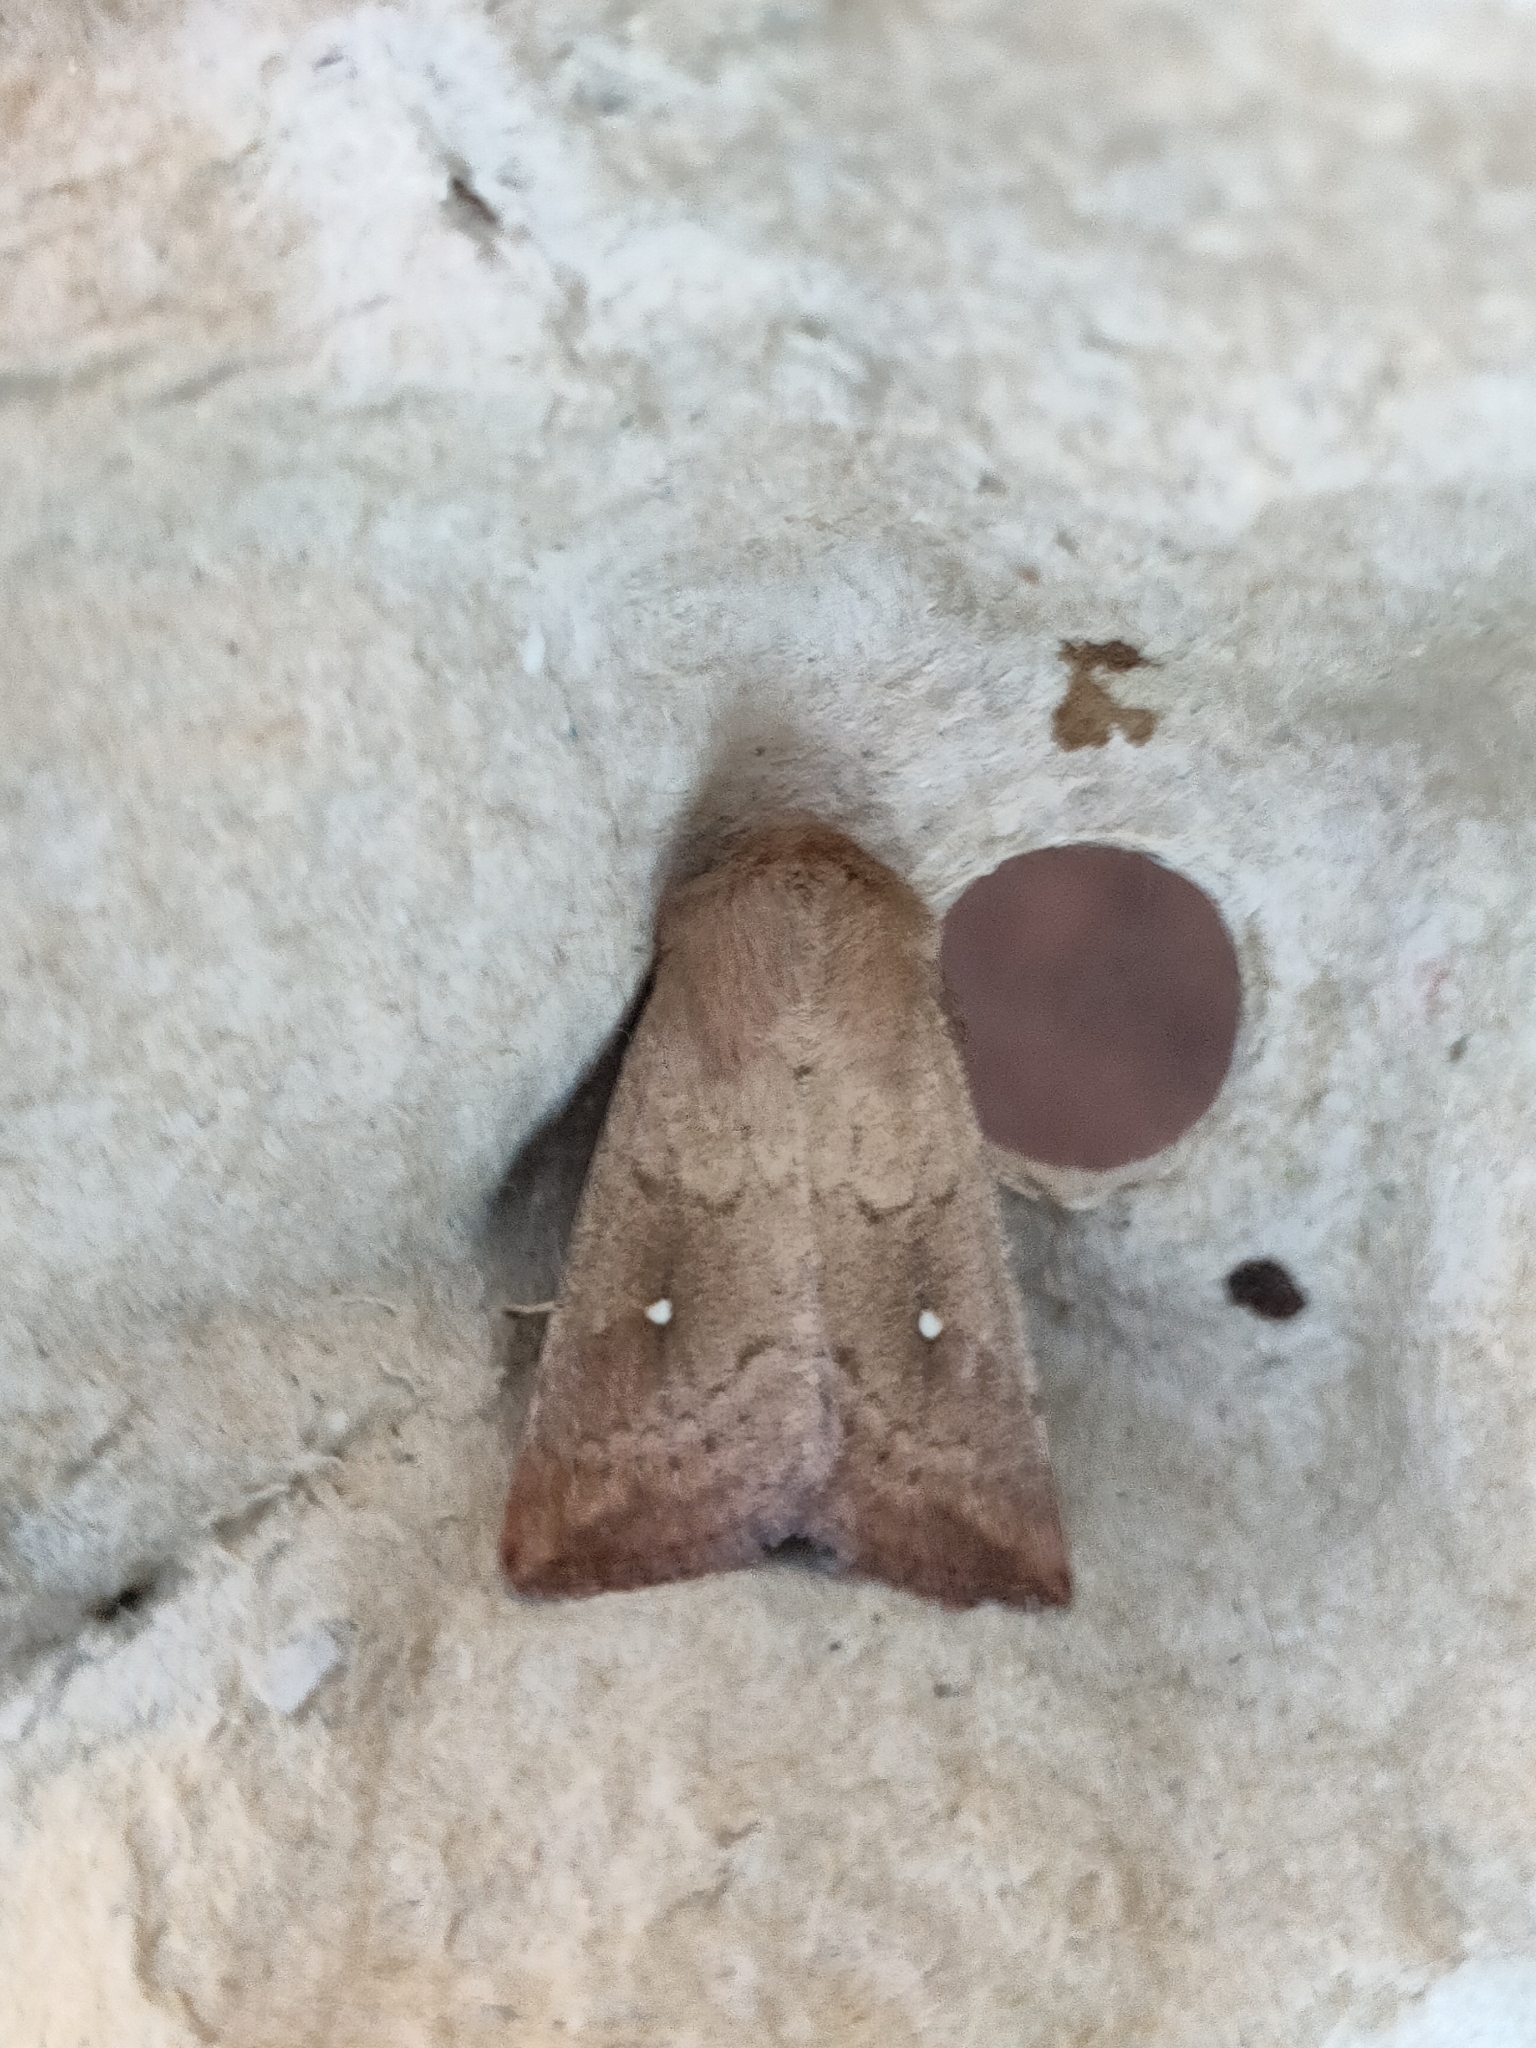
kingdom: Animalia
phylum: Arthropoda
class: Insecta
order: Lepidoptera
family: Noctuidae
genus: Mythimna
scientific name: Mythimna albipuncta
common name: White-point
